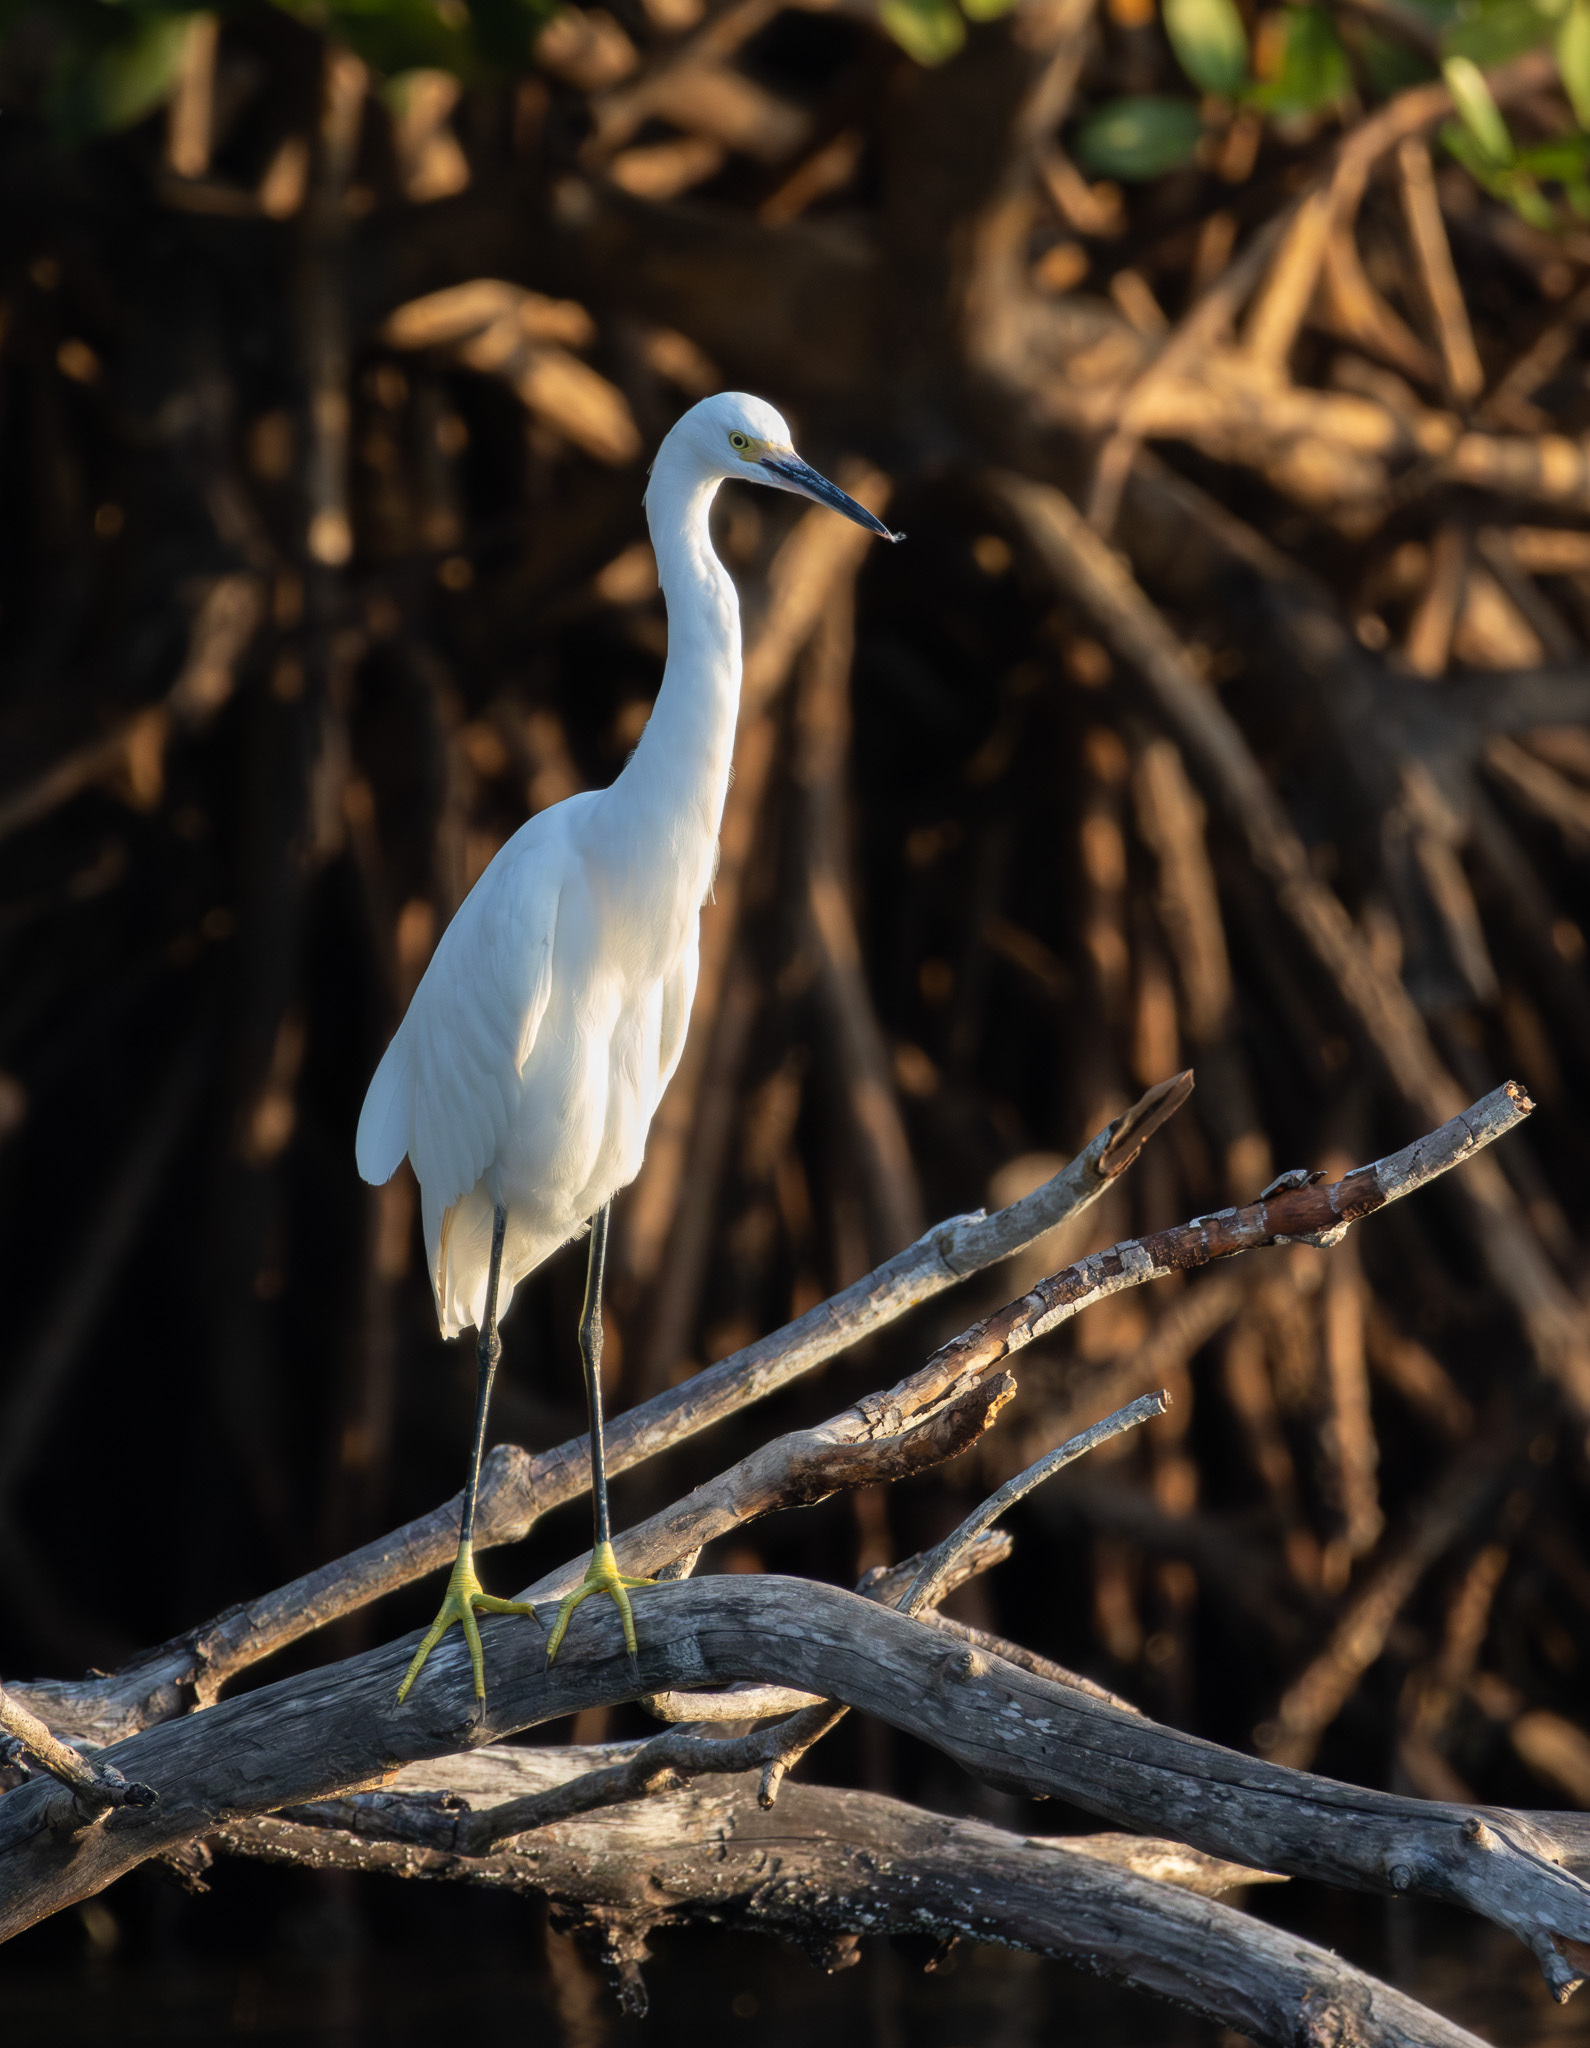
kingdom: Animalia
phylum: Chordata
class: Aves
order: Pelecaniformes
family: Ardeidae
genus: Egretta
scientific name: Egretta thula
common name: Snowy egret
